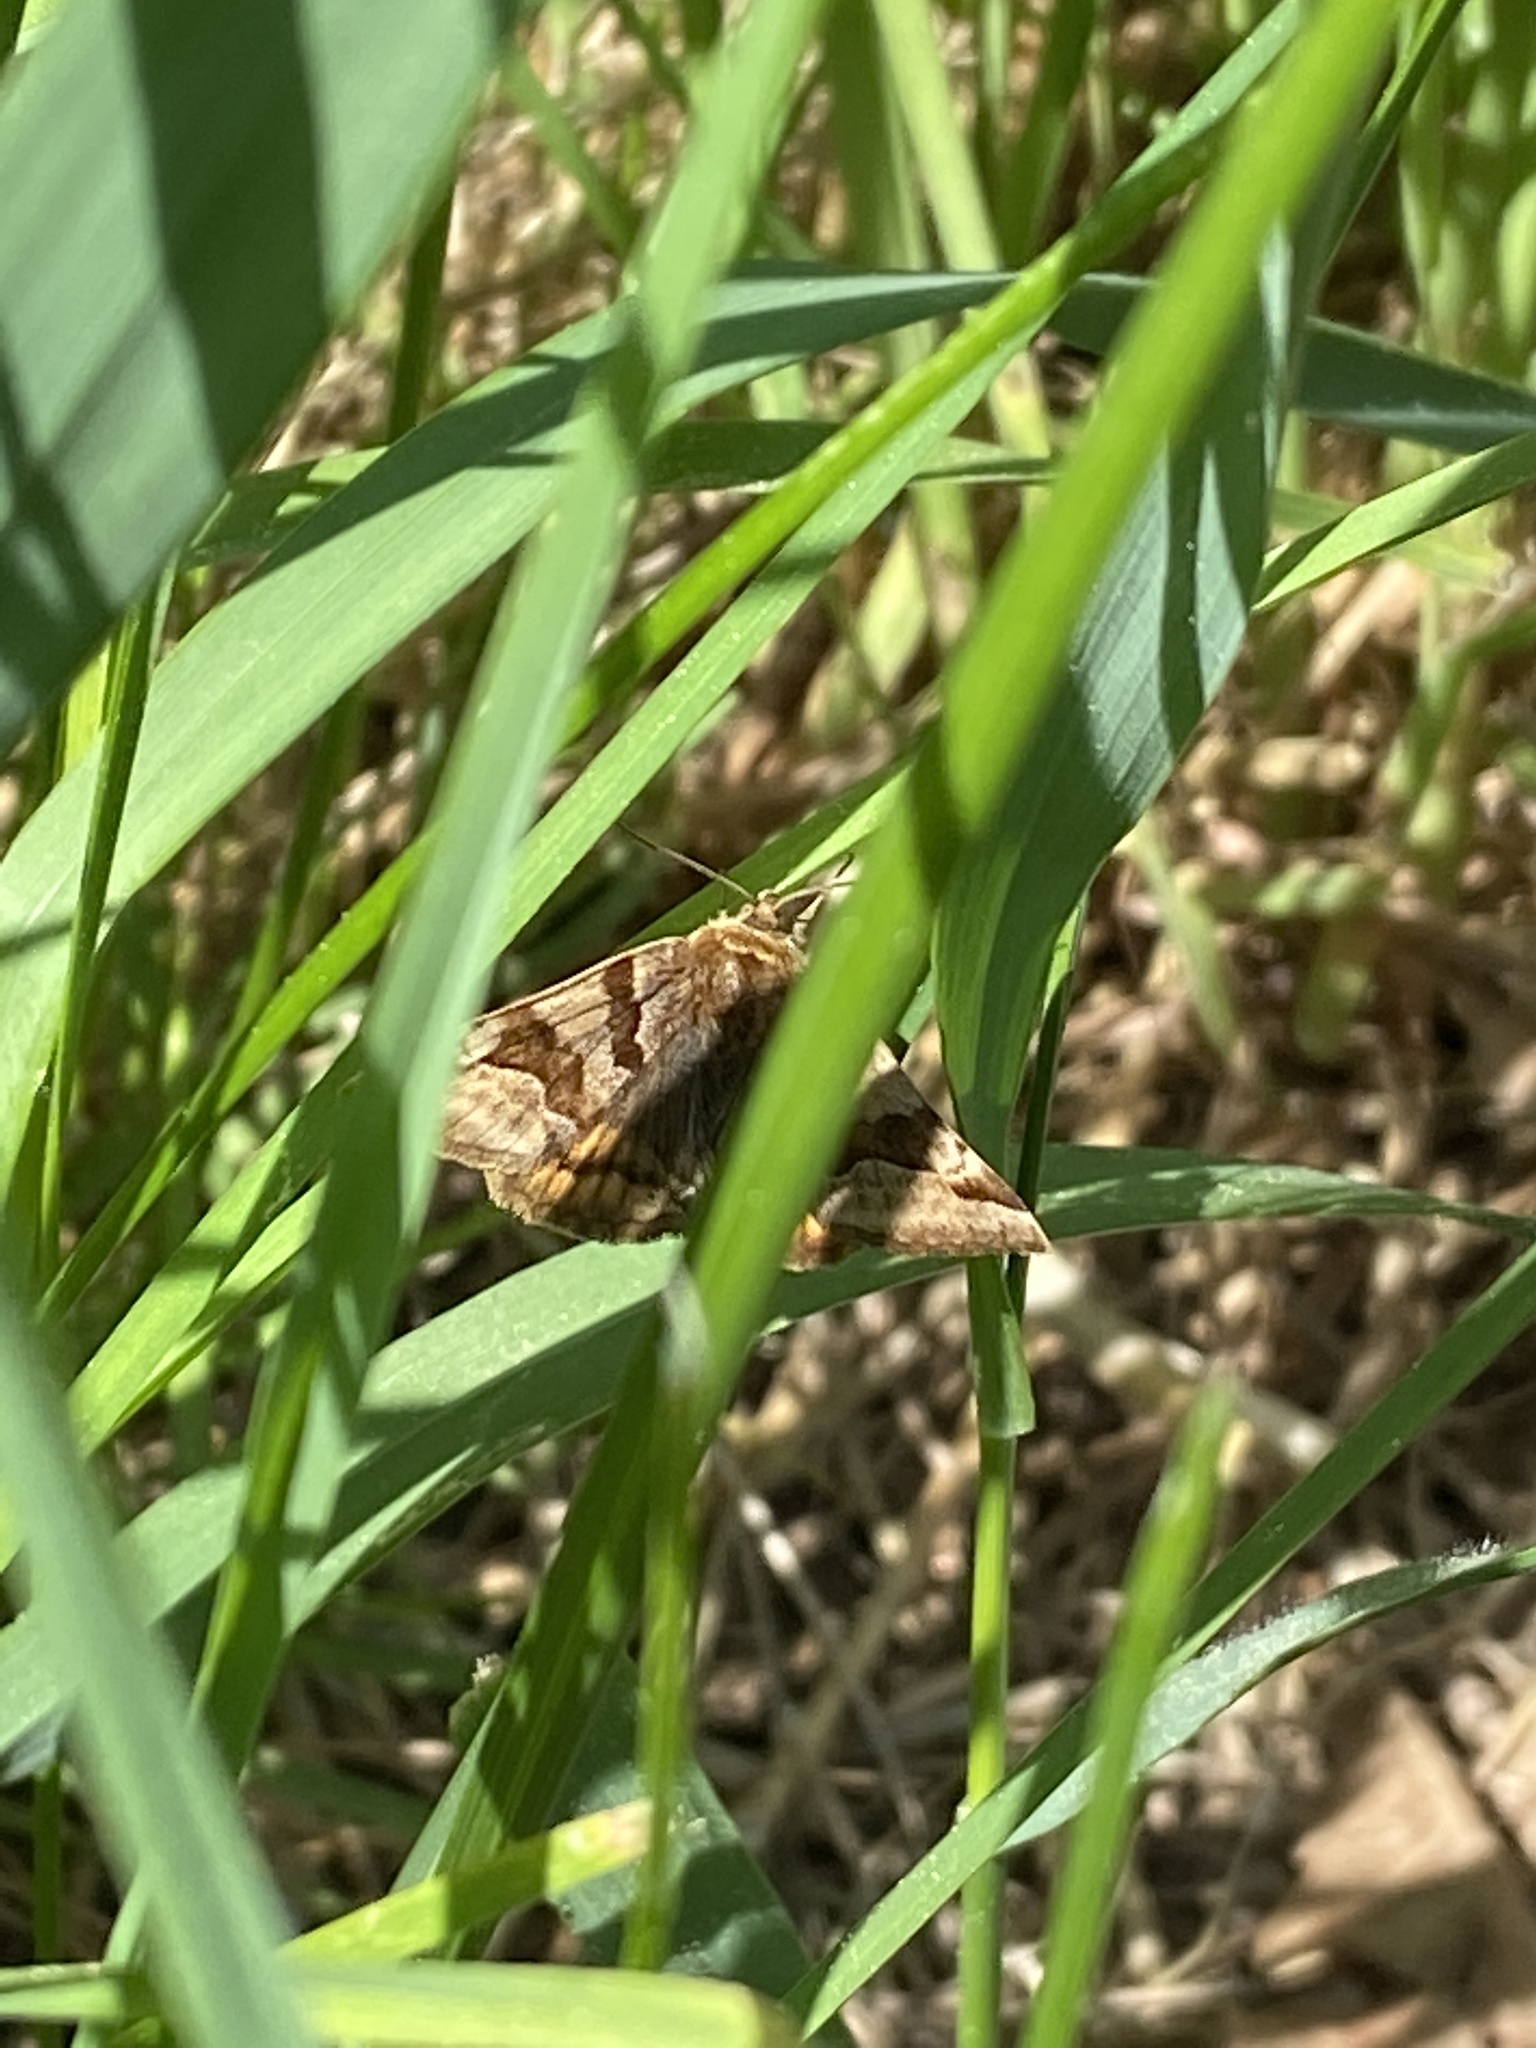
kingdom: Animalia
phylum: Arthropoda
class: Insecta
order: Lepidoptera
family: Erebidae
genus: Euclidia
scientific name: Euclidia glyphica
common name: Burnet companion
